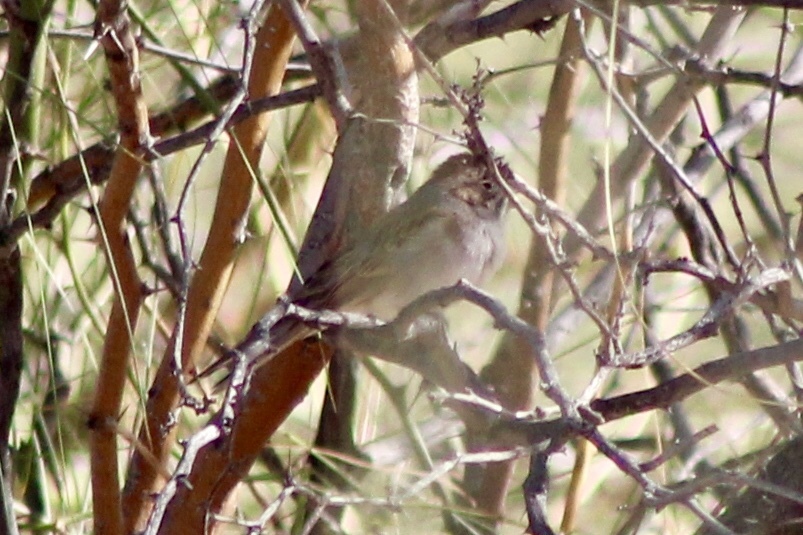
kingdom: Animalia
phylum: Chordata
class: Aves
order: Passeriformes
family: Passerellidae
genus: Spizella
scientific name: Spizella
